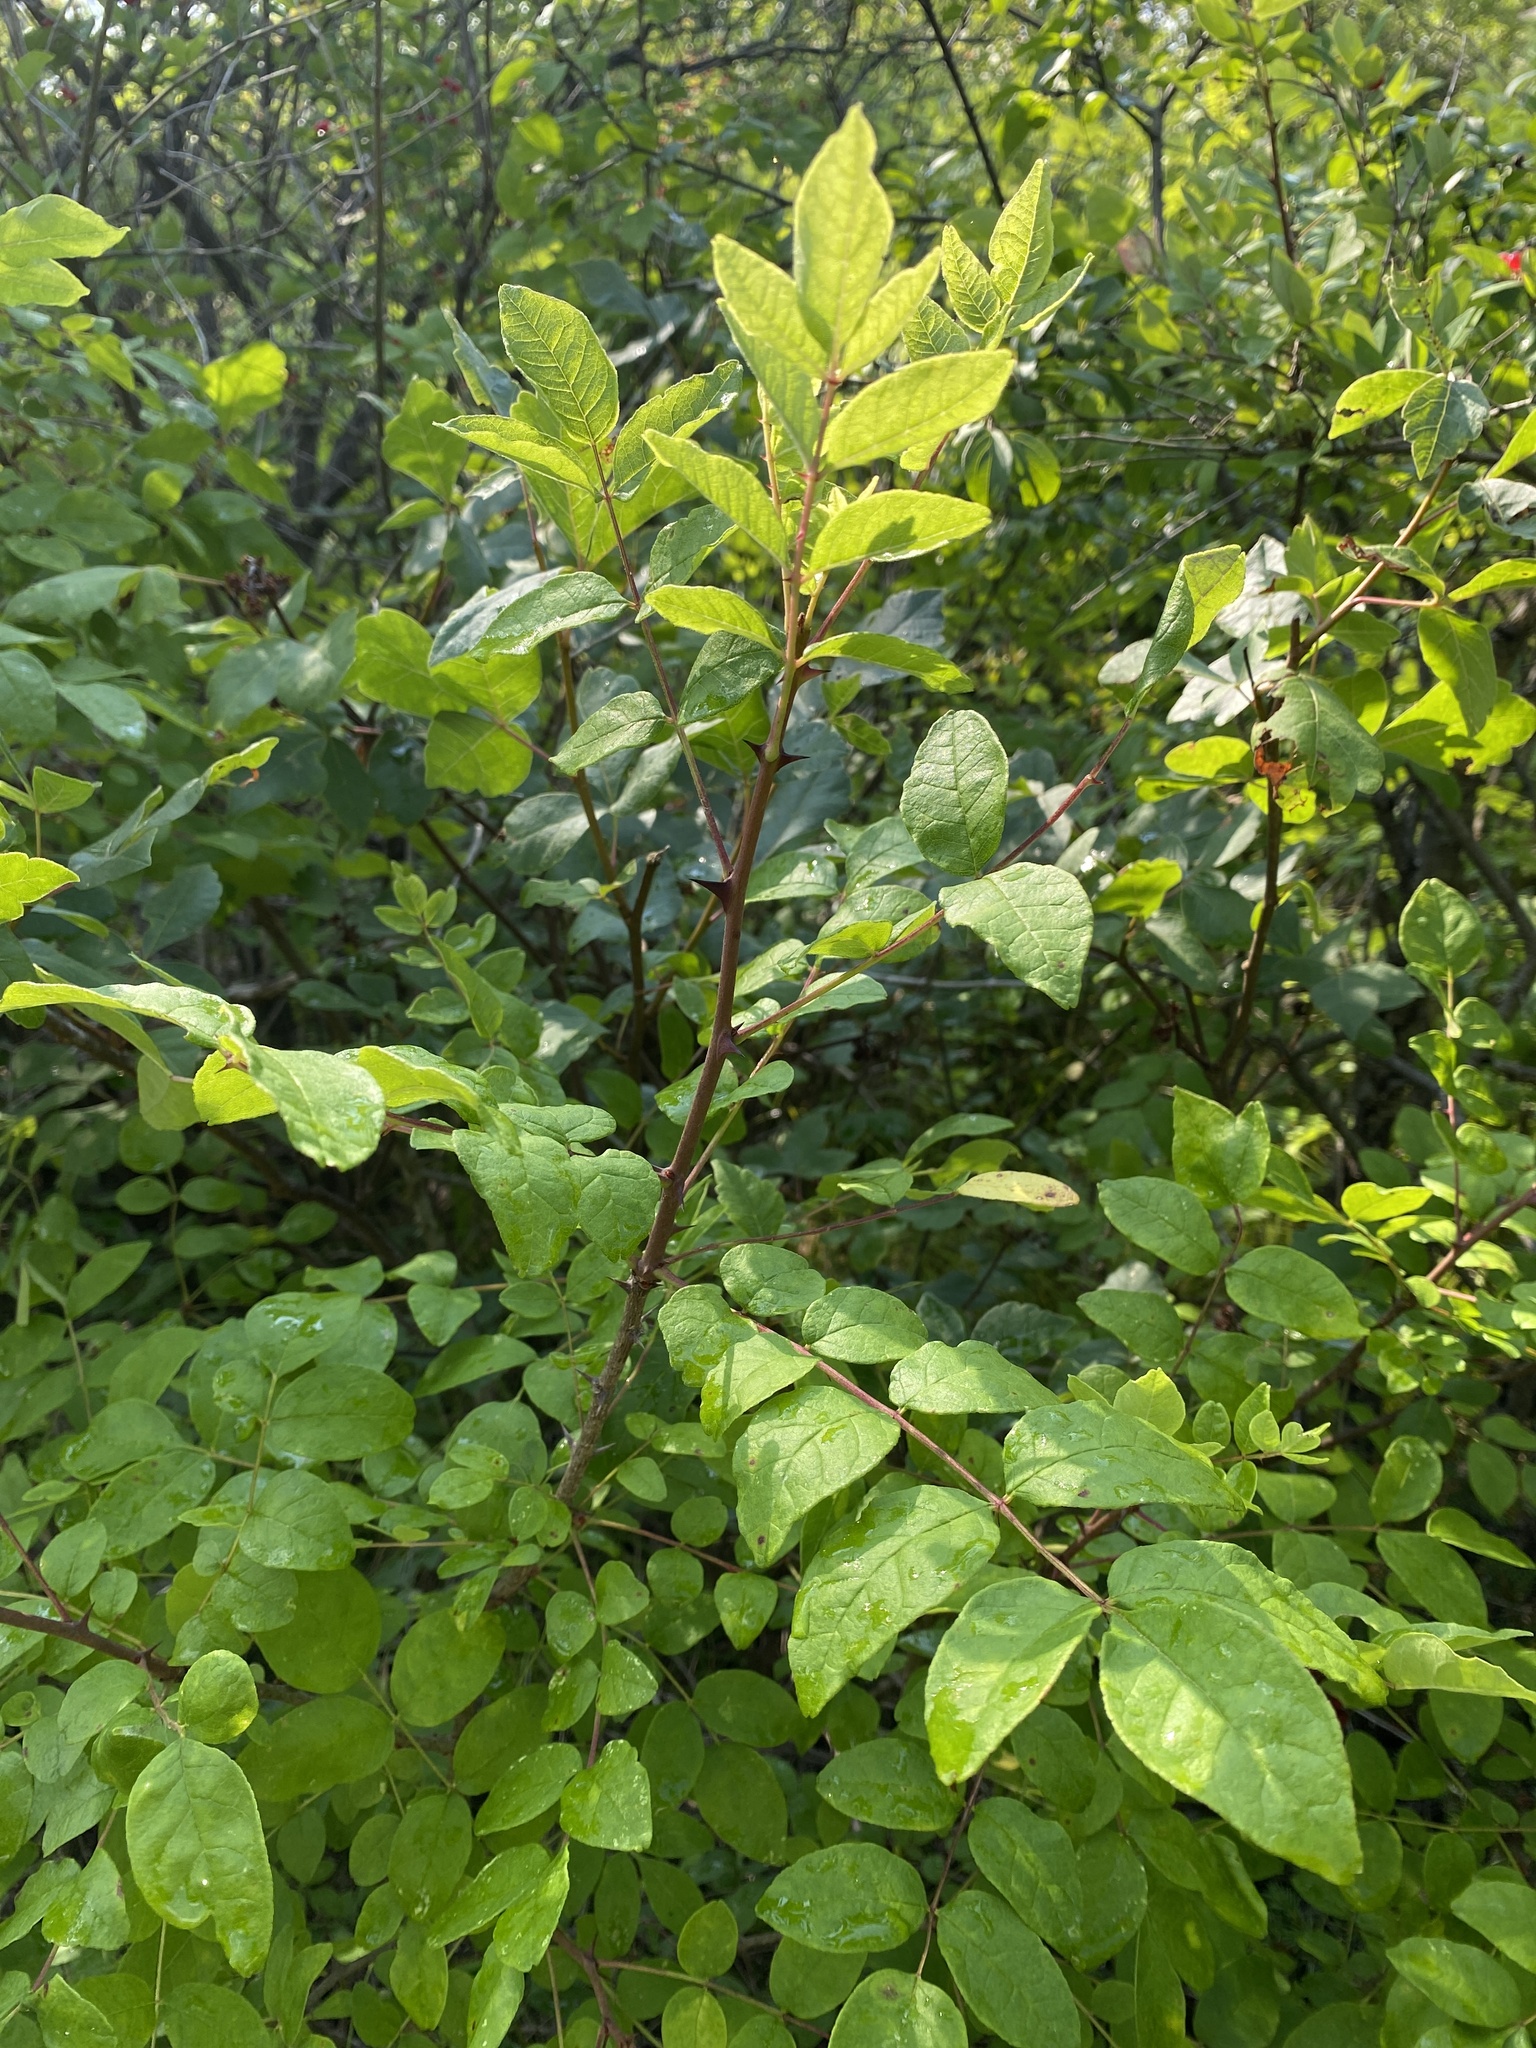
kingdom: Plantae
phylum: Tracheophyta
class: Magnoliopsida
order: Sapindales
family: Rutaceae
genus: Zanthoxylum
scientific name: Zanthoxylum americanum
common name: Northern prickly-ash
